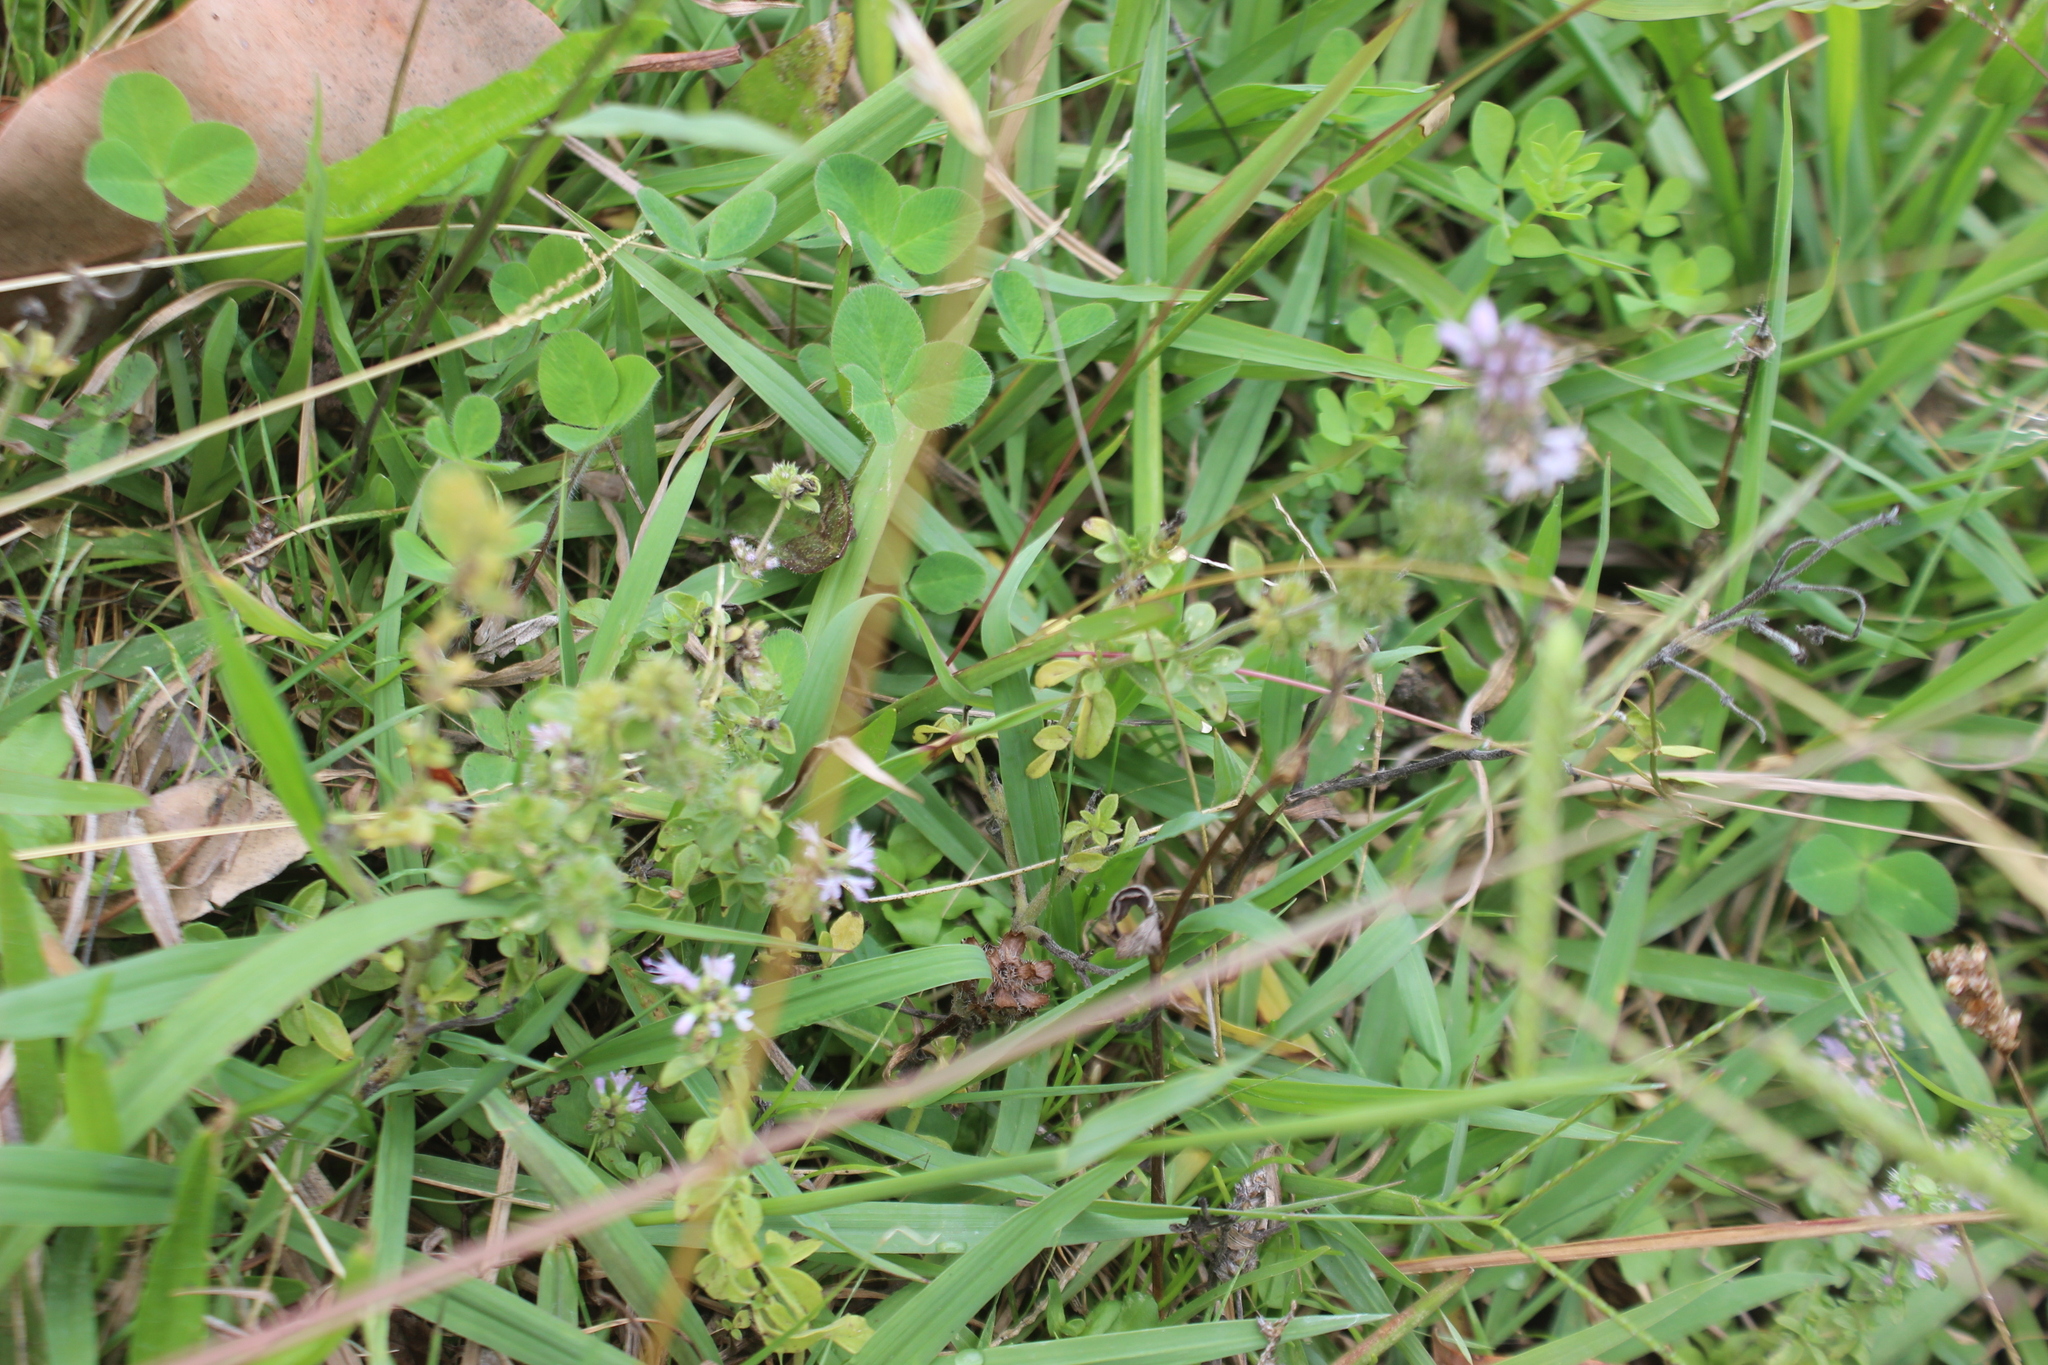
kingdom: Plantae
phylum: Tracheophyta
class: Magnoliopsida
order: Lamiales
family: Lamiaceae
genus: Thymus
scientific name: Thymus vulgaris
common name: Garden thyme
